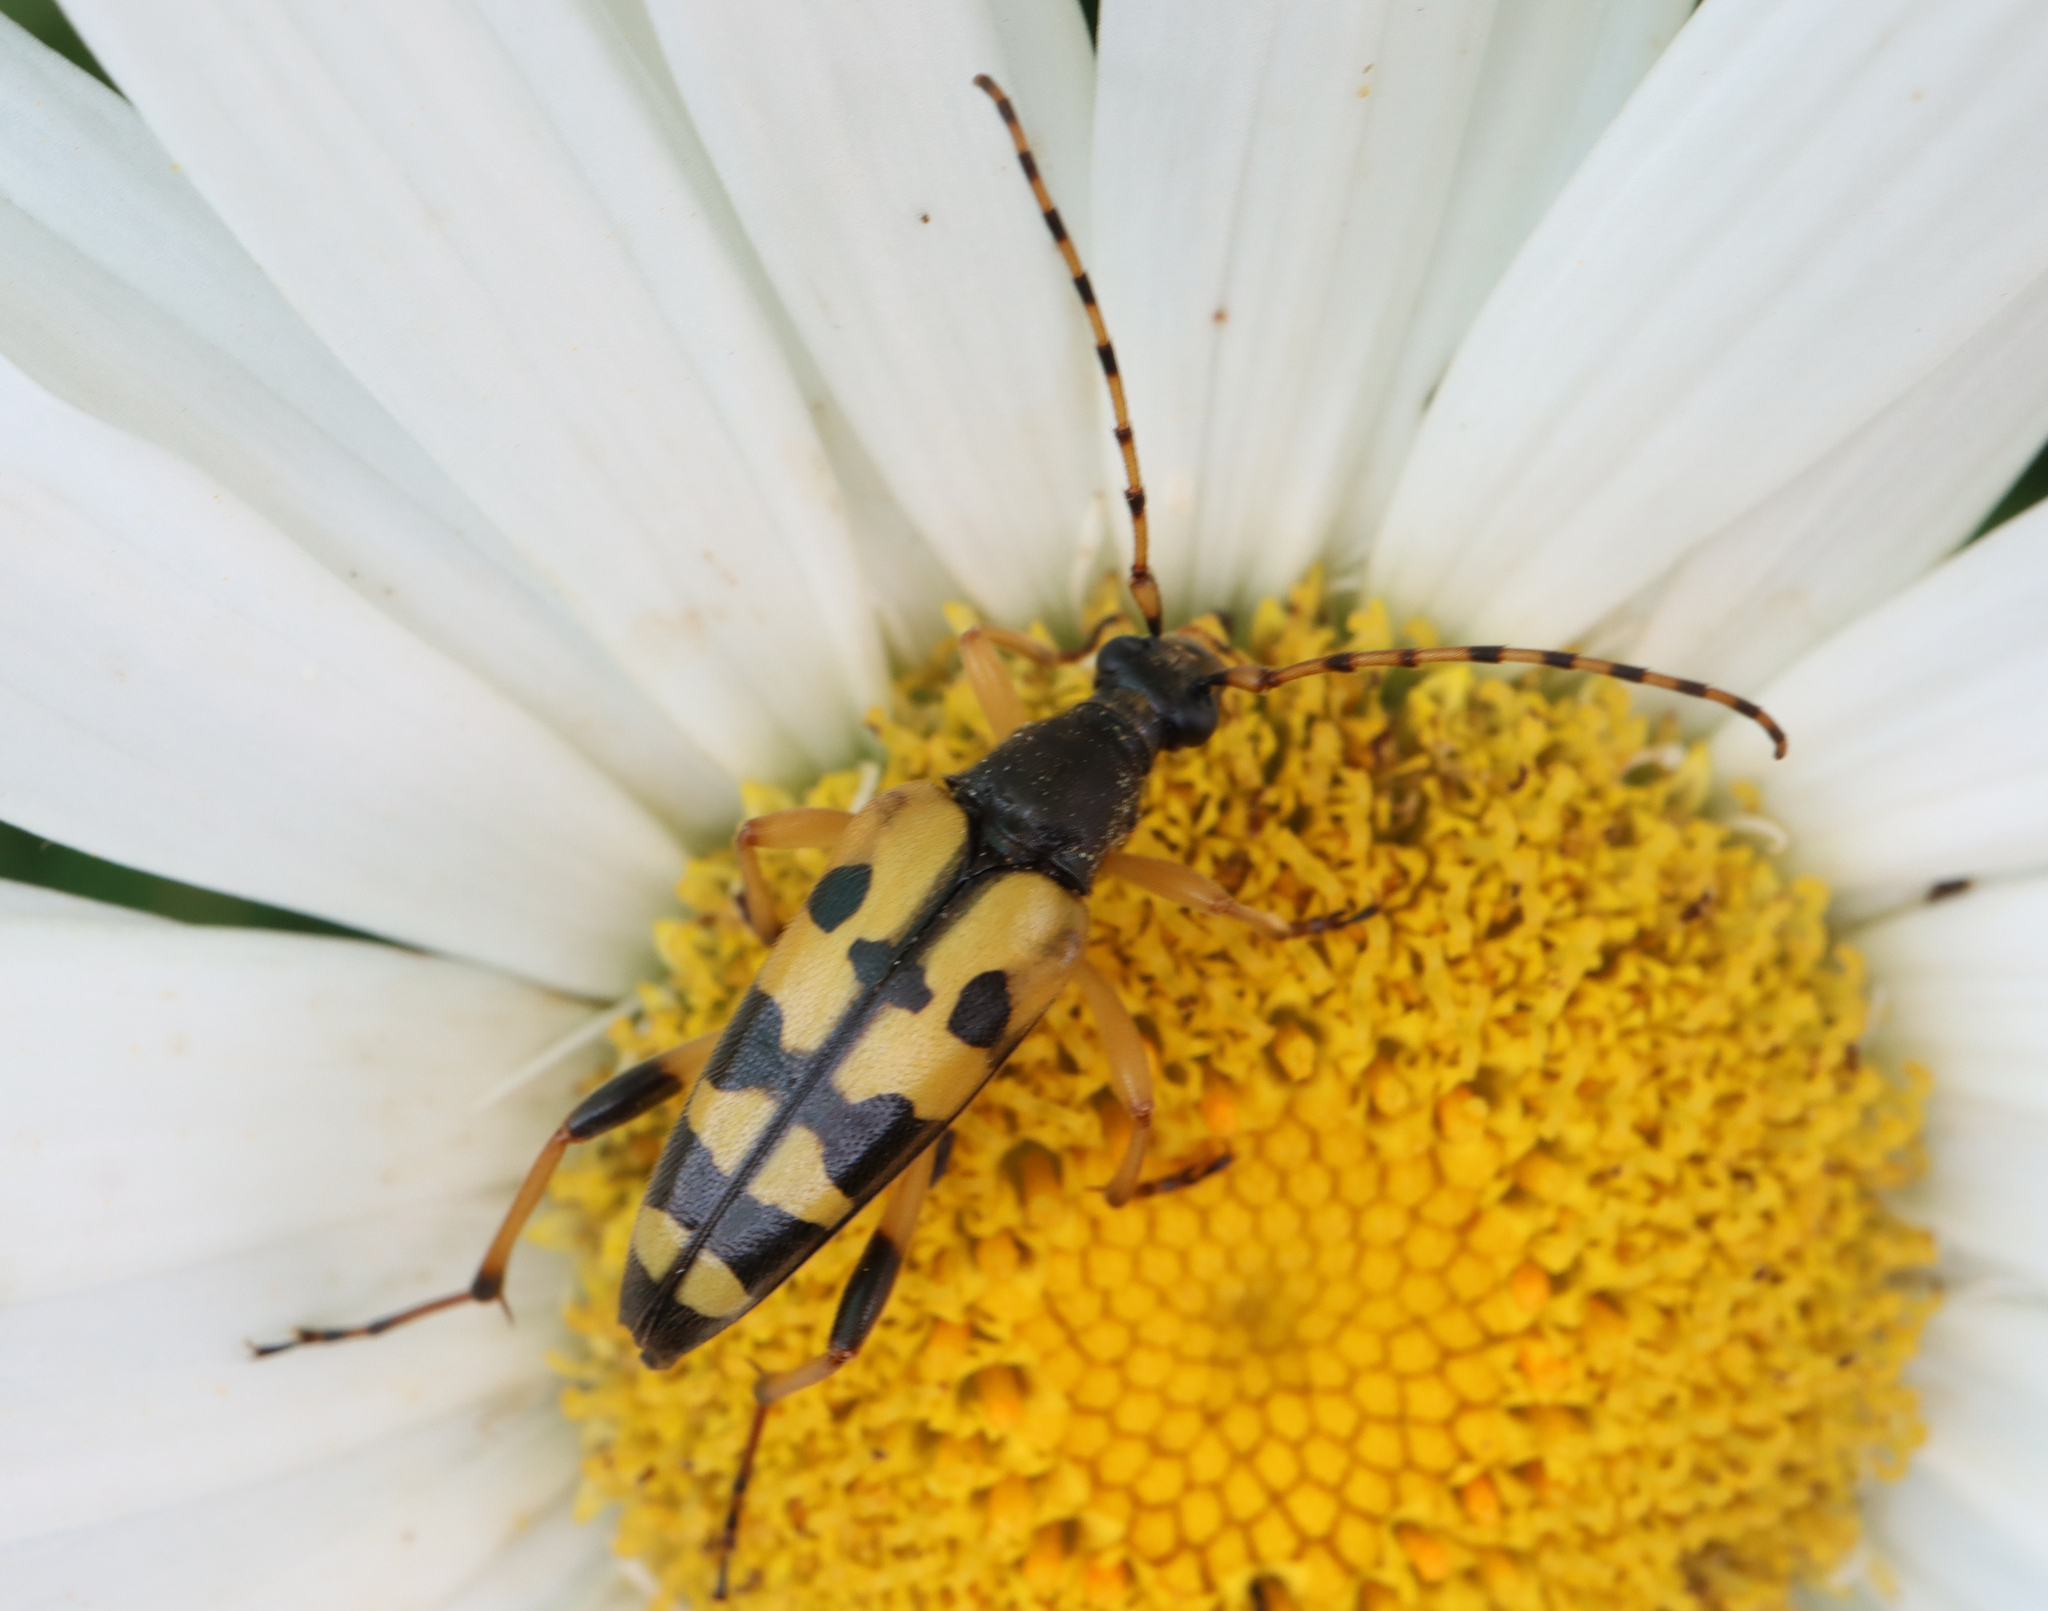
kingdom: Animalia
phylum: Arthropoda
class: Insecta
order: Coleoptera
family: Cerambycidae
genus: Rutpela
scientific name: Rutpela maculata
